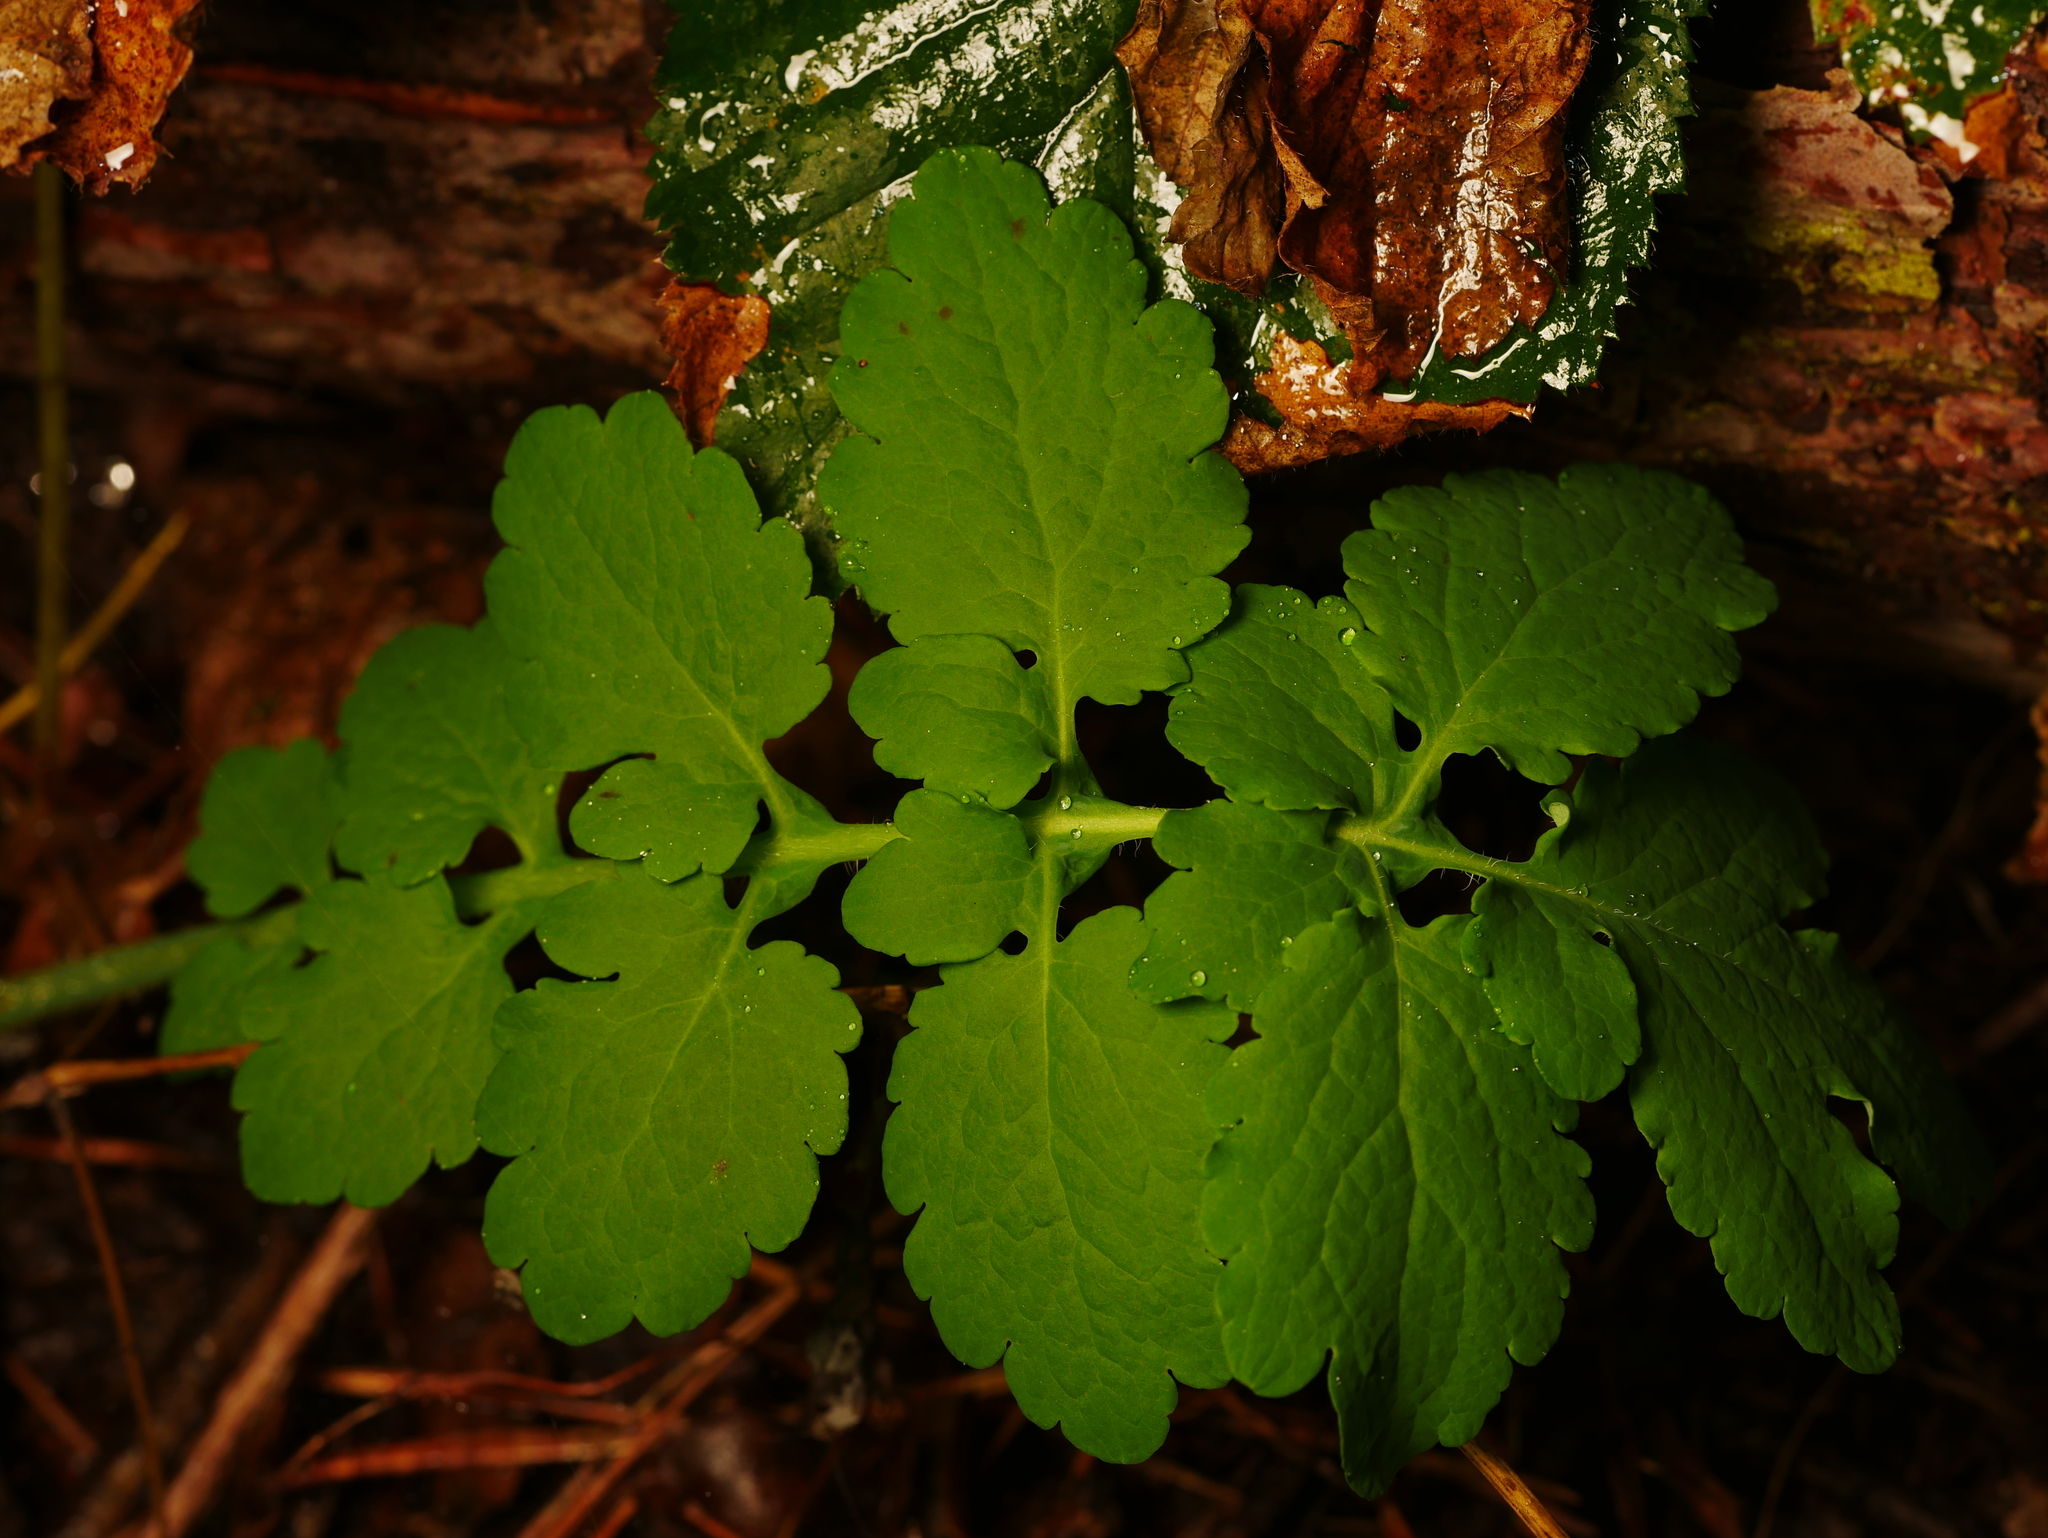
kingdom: Plantae
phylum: Tracheophyta
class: Magnoliopsida
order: Ranunculales
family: Papaveraceae
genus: Chelidonium
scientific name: Chelidonium majus
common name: Greater celandine
